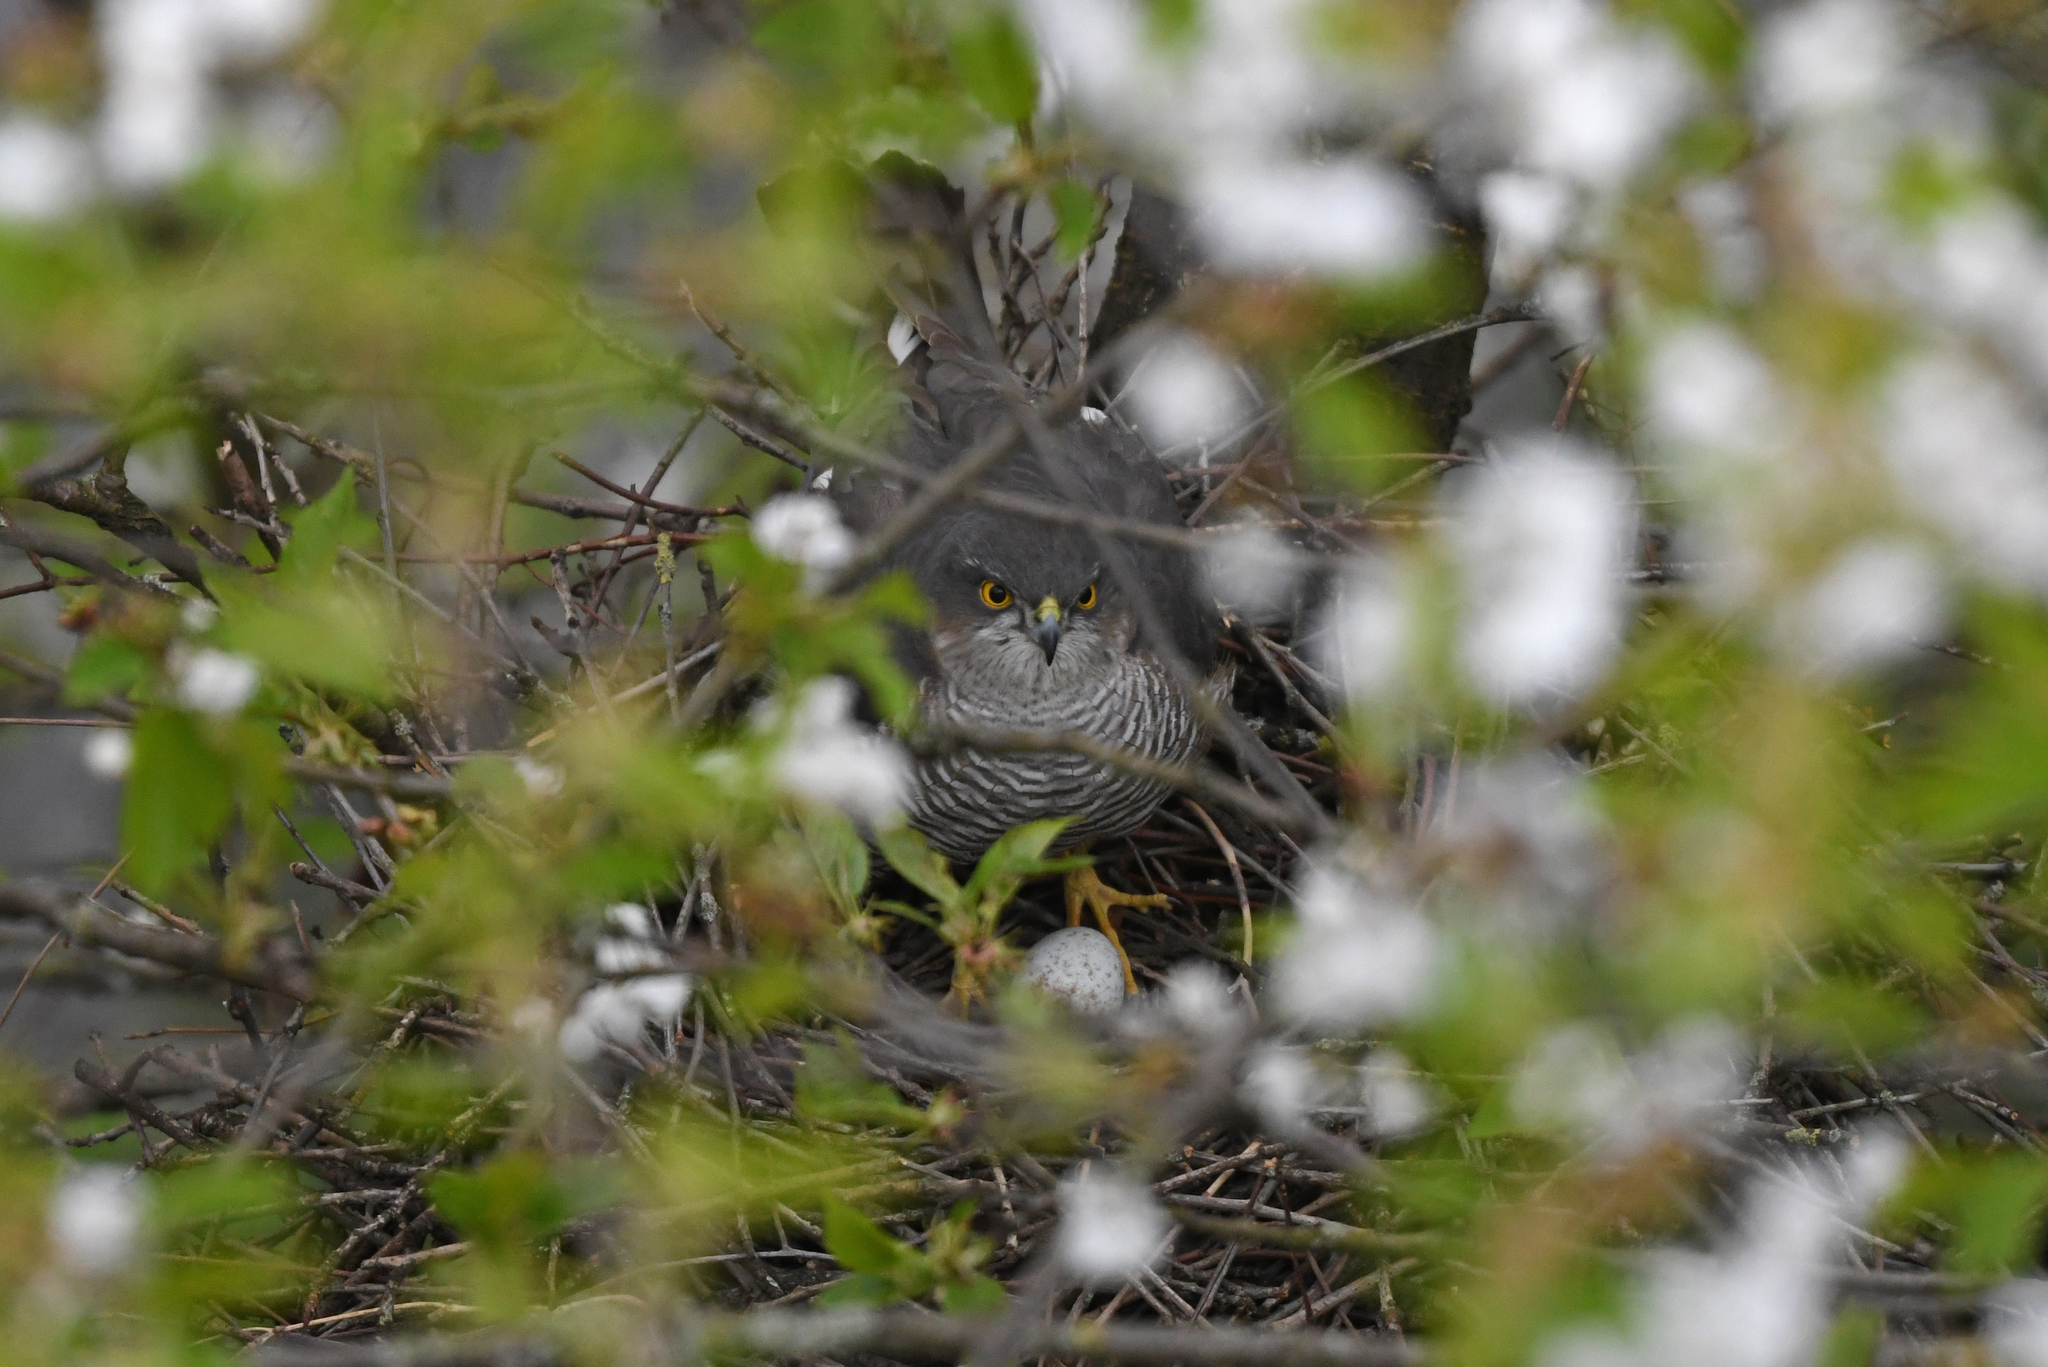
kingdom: Animalia
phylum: Chordata
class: Aves
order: Accipitriformes
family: Accipitridae
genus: Accipiter
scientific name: Accipiter nisus
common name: Eurasian sparrowhawk
